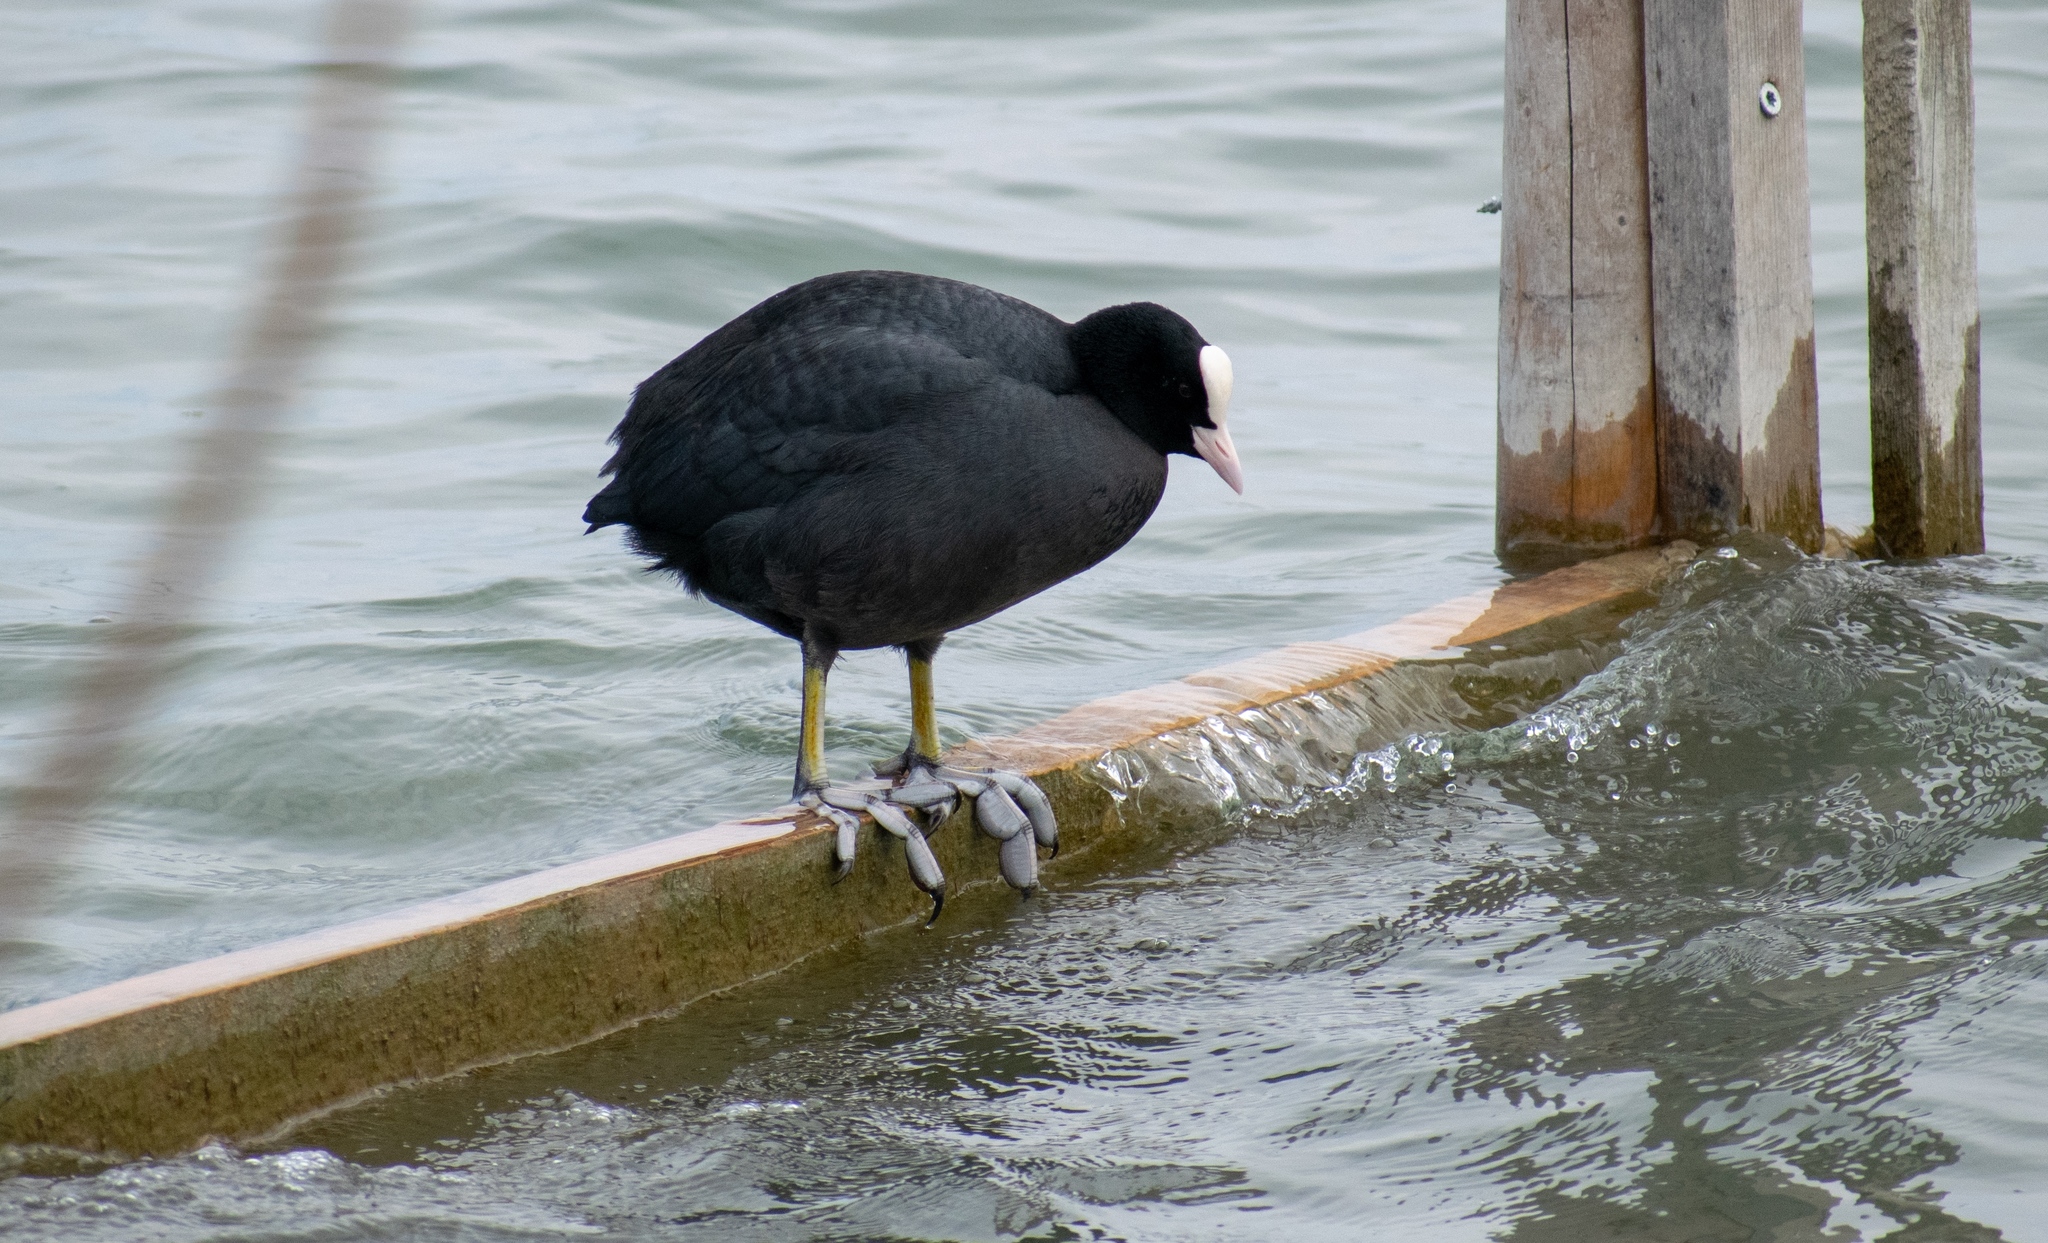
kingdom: Animalia
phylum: Chordata
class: Aves
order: Gruiformes
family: Rallidae
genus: Fulica
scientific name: Fulica atra
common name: Eurasian coot
